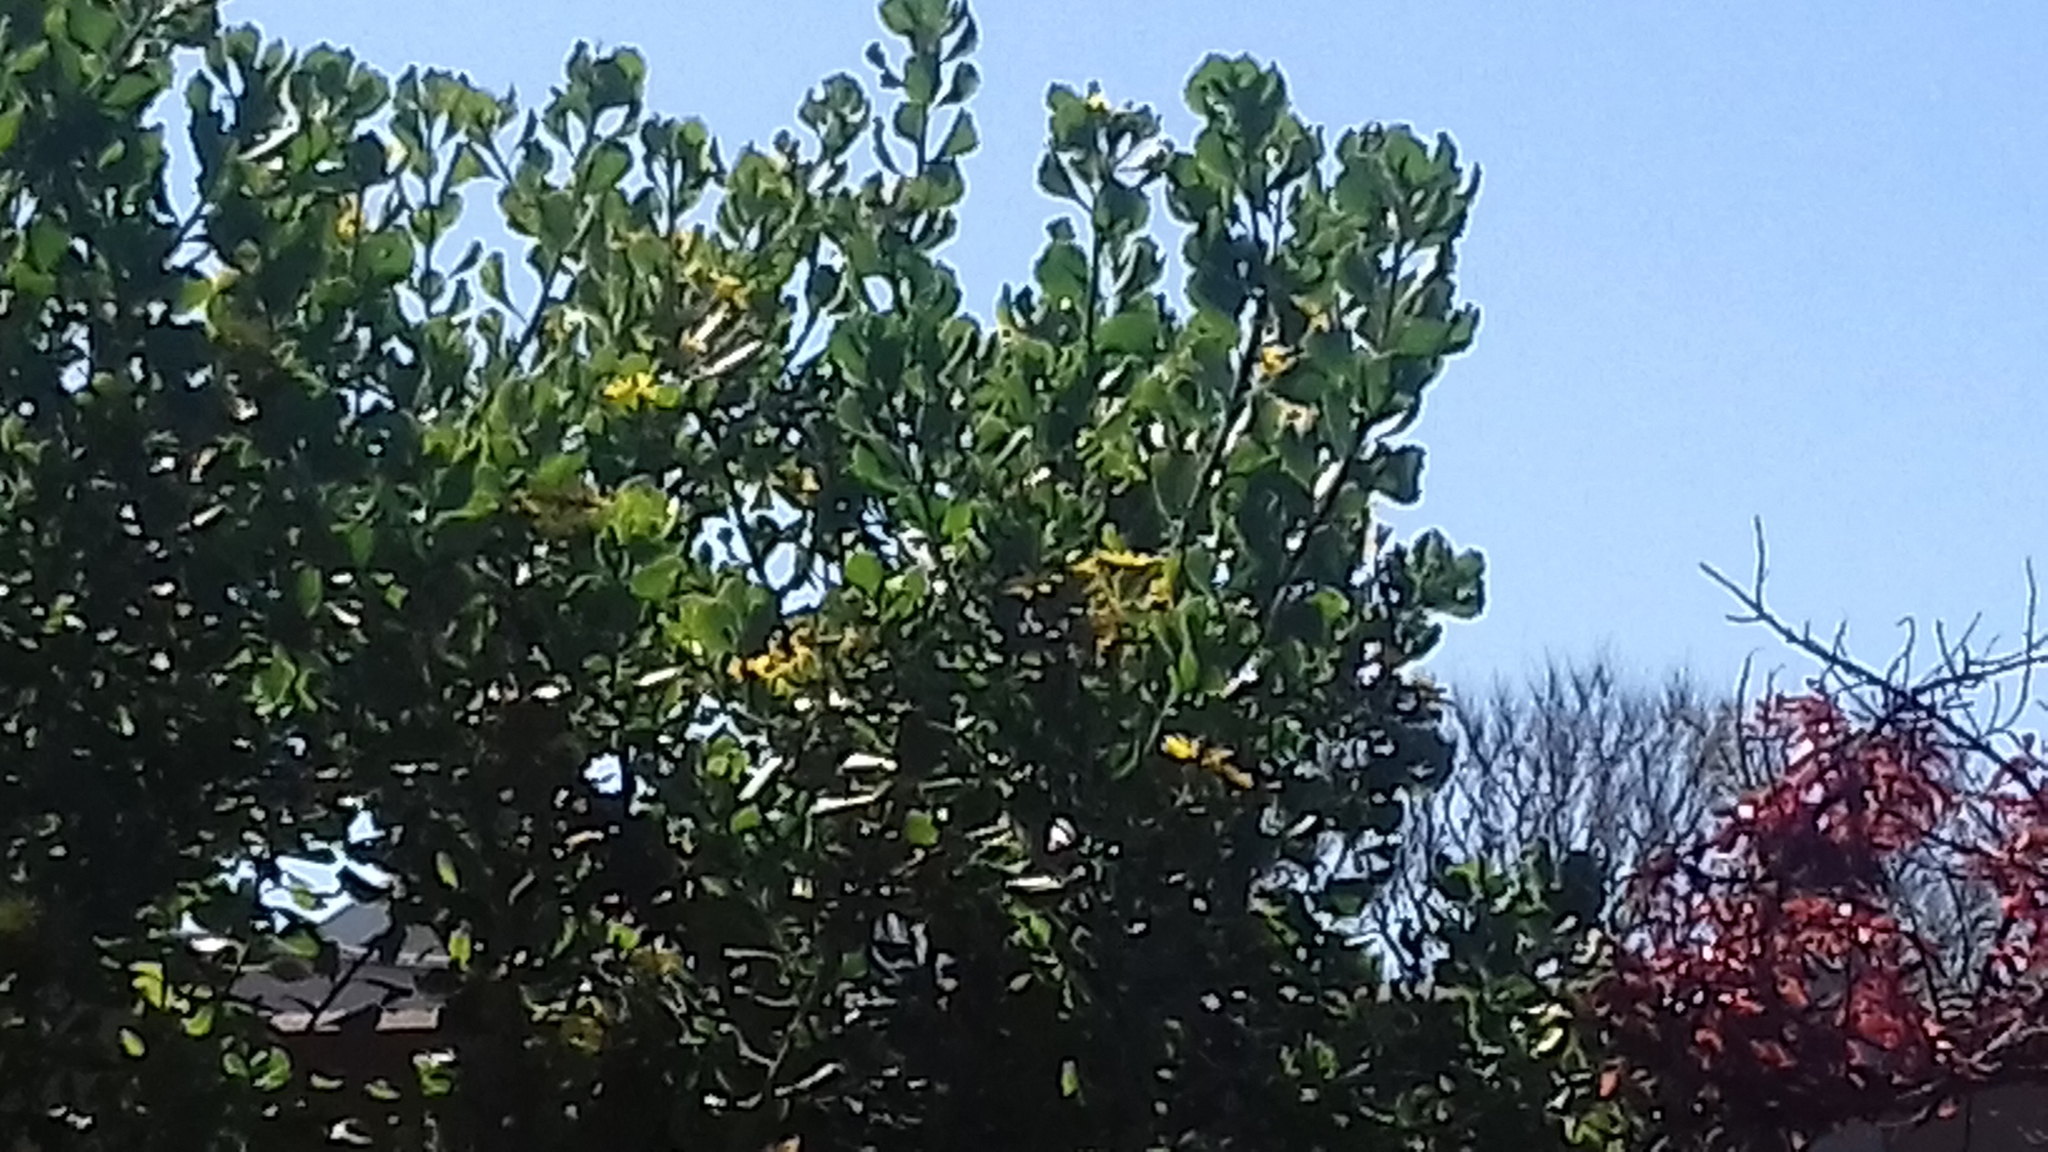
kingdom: Animalia
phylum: Chordata
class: Aves
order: Passeriformes
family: Nectariniidae
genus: Cinnyris
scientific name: Cinnyris chalybeus
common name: Southern double-collared sunbird
